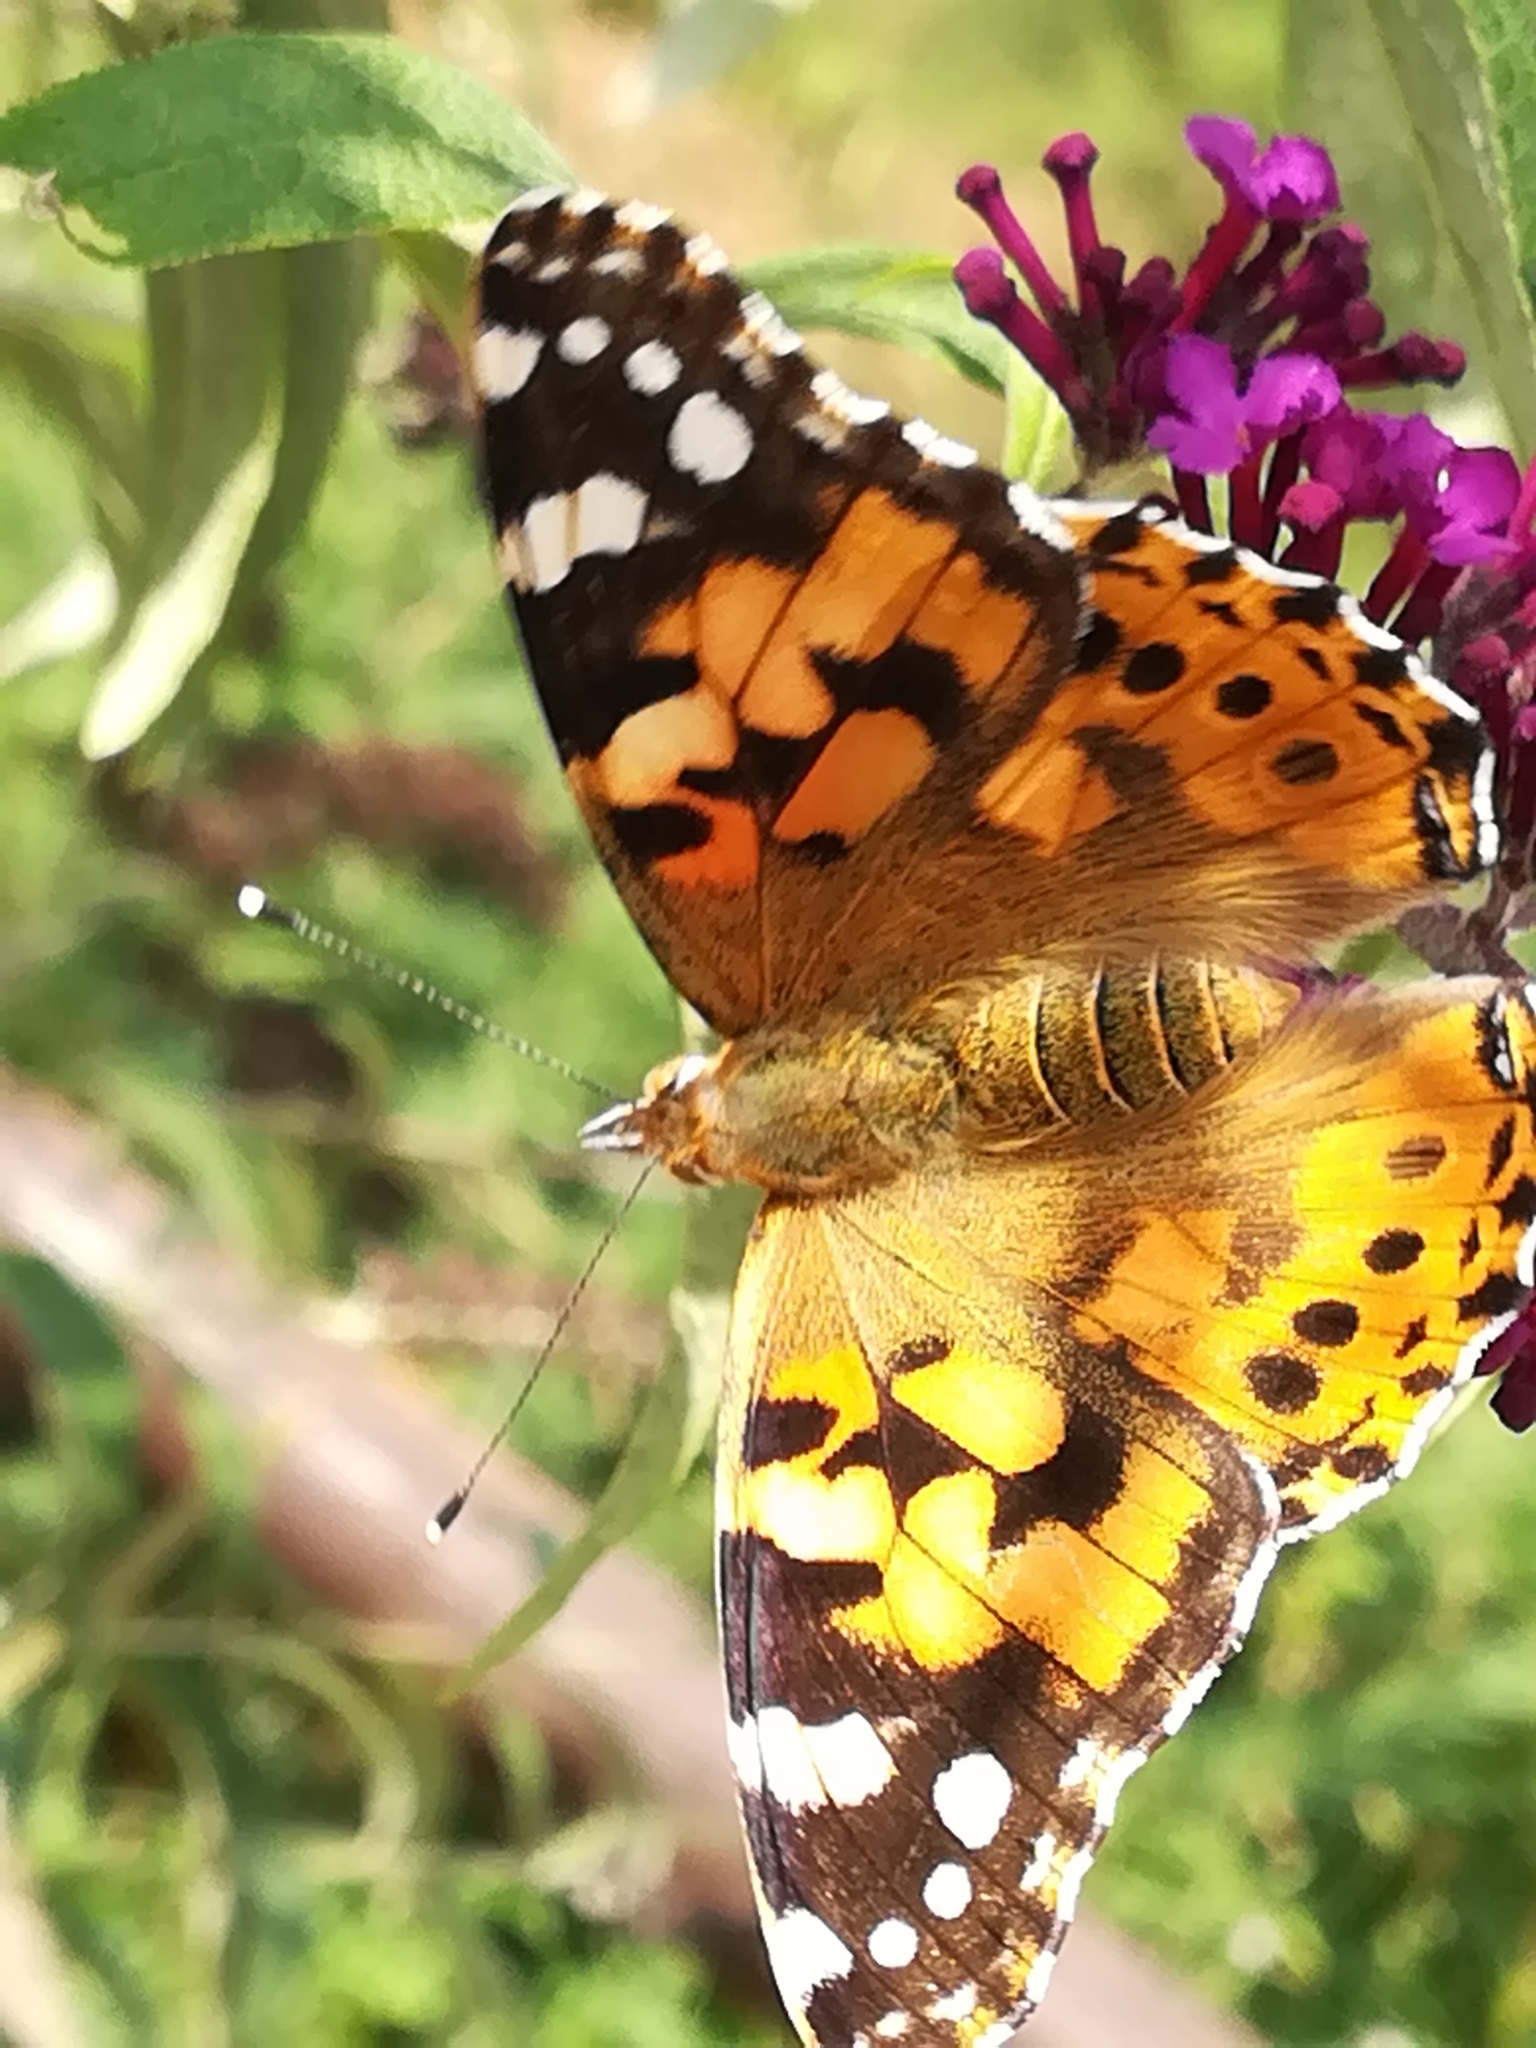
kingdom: Animalia
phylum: Arthropoda
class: Insecta
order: Lepidoptera
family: Nymphalidae
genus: Vanessa
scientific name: Vanessa cardui
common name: Painted lady
